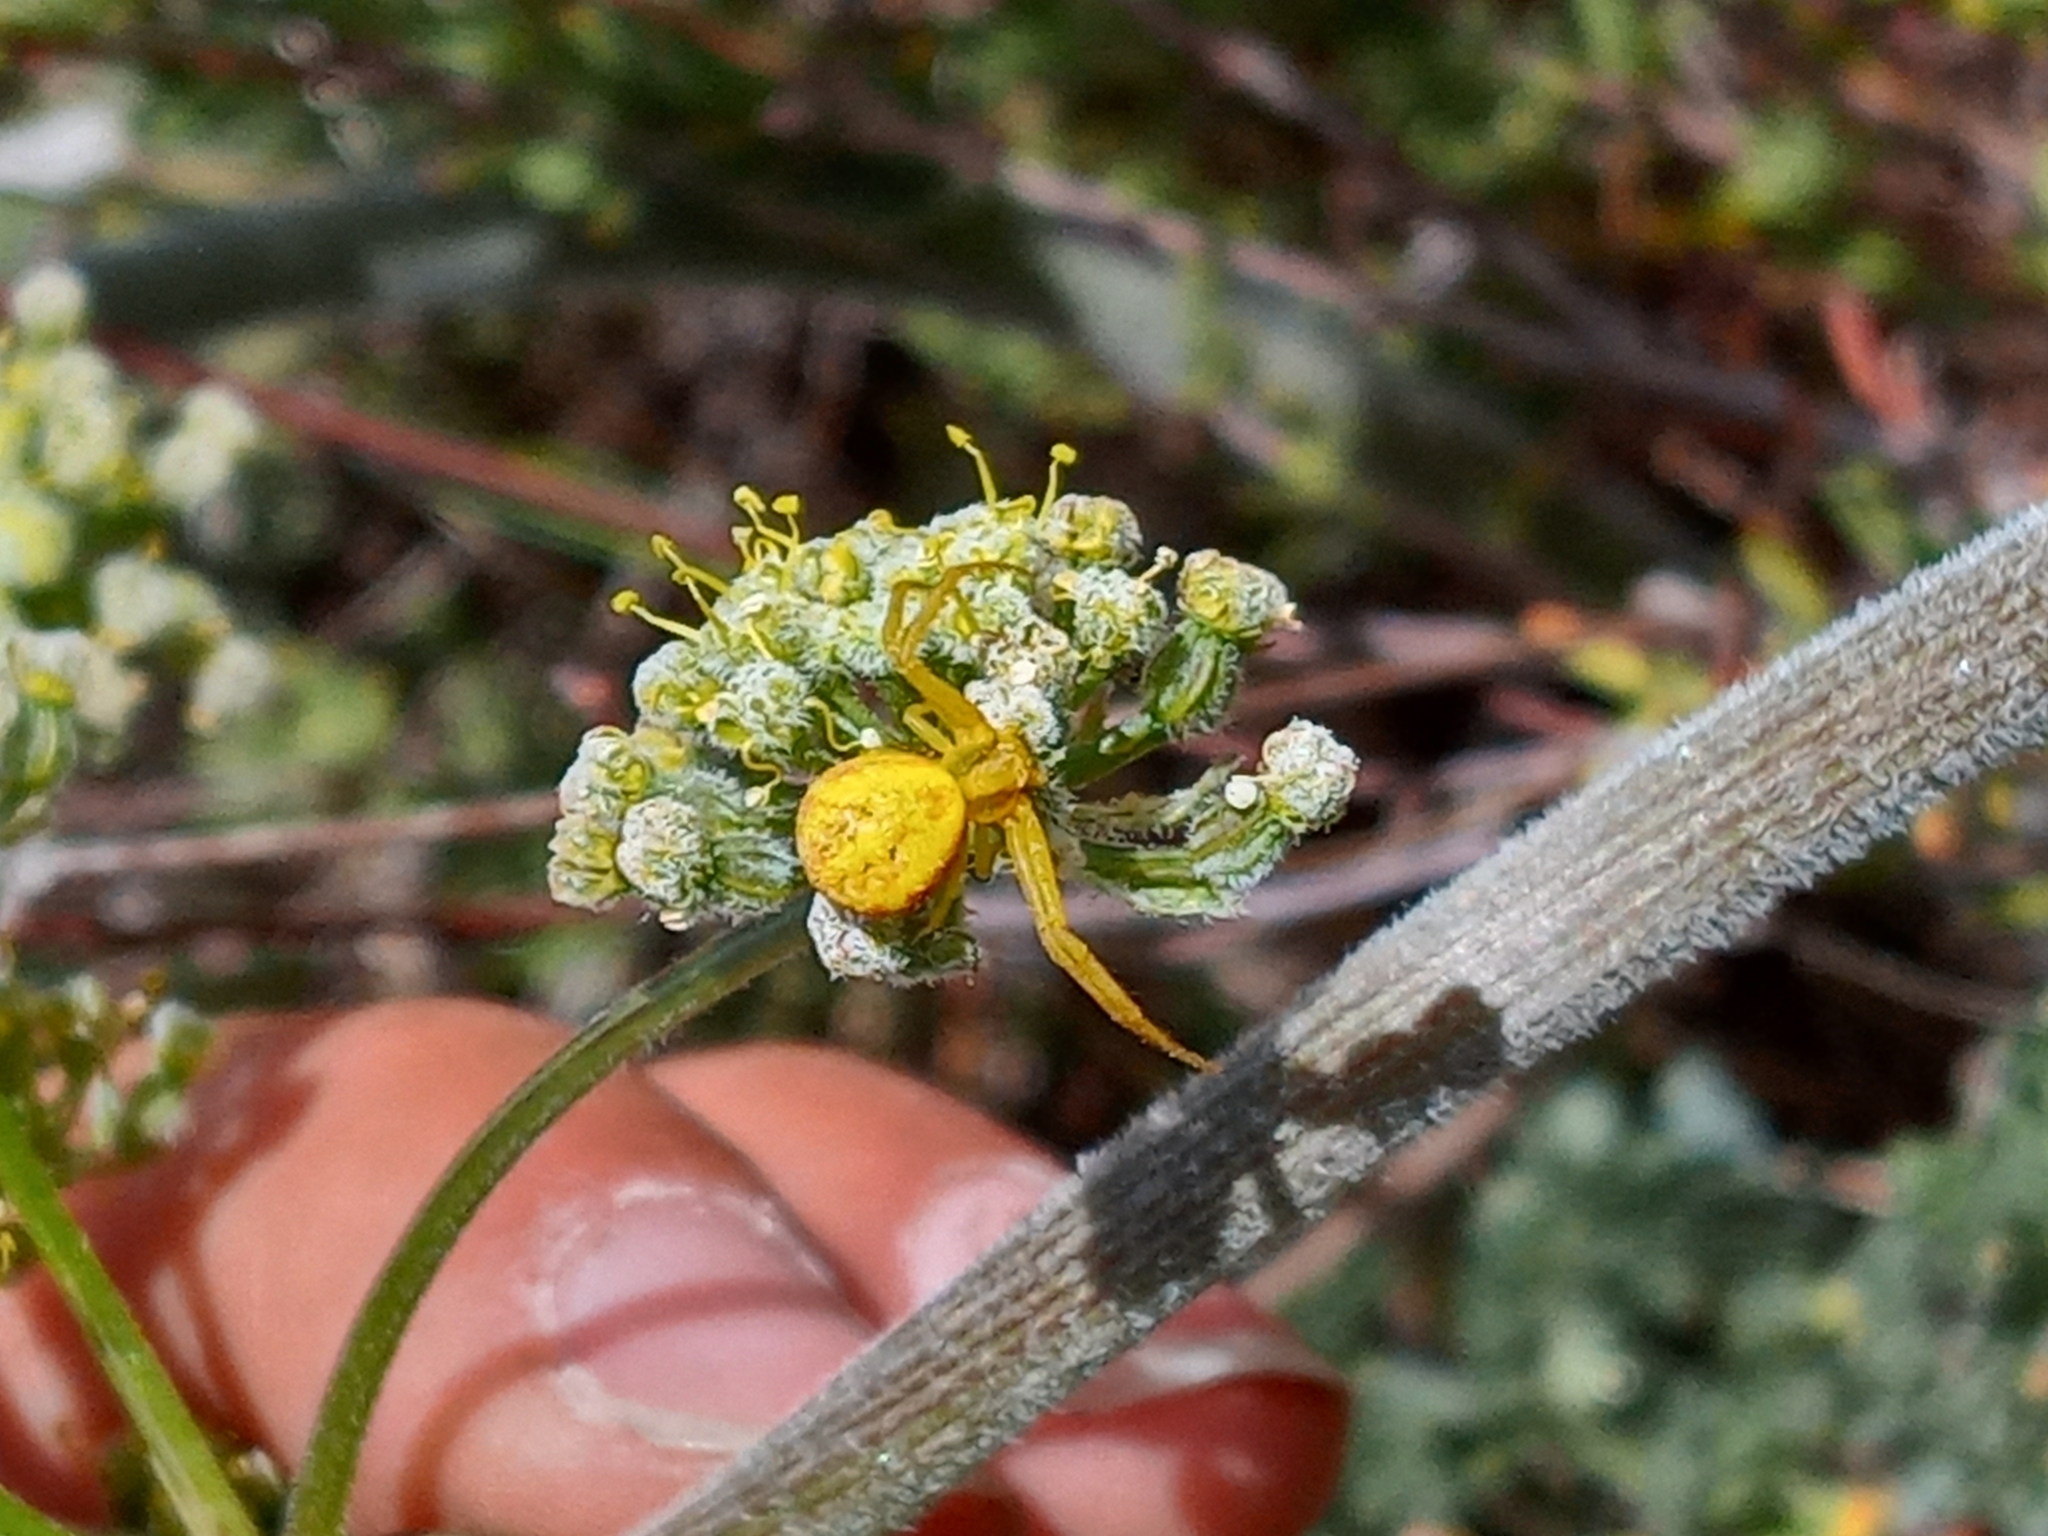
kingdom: Animalia
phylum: Arthropoda
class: Arachnida
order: Araneae
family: Thomisidae
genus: Misumena
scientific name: Misumena vatia
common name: Goldenrod crab spider
